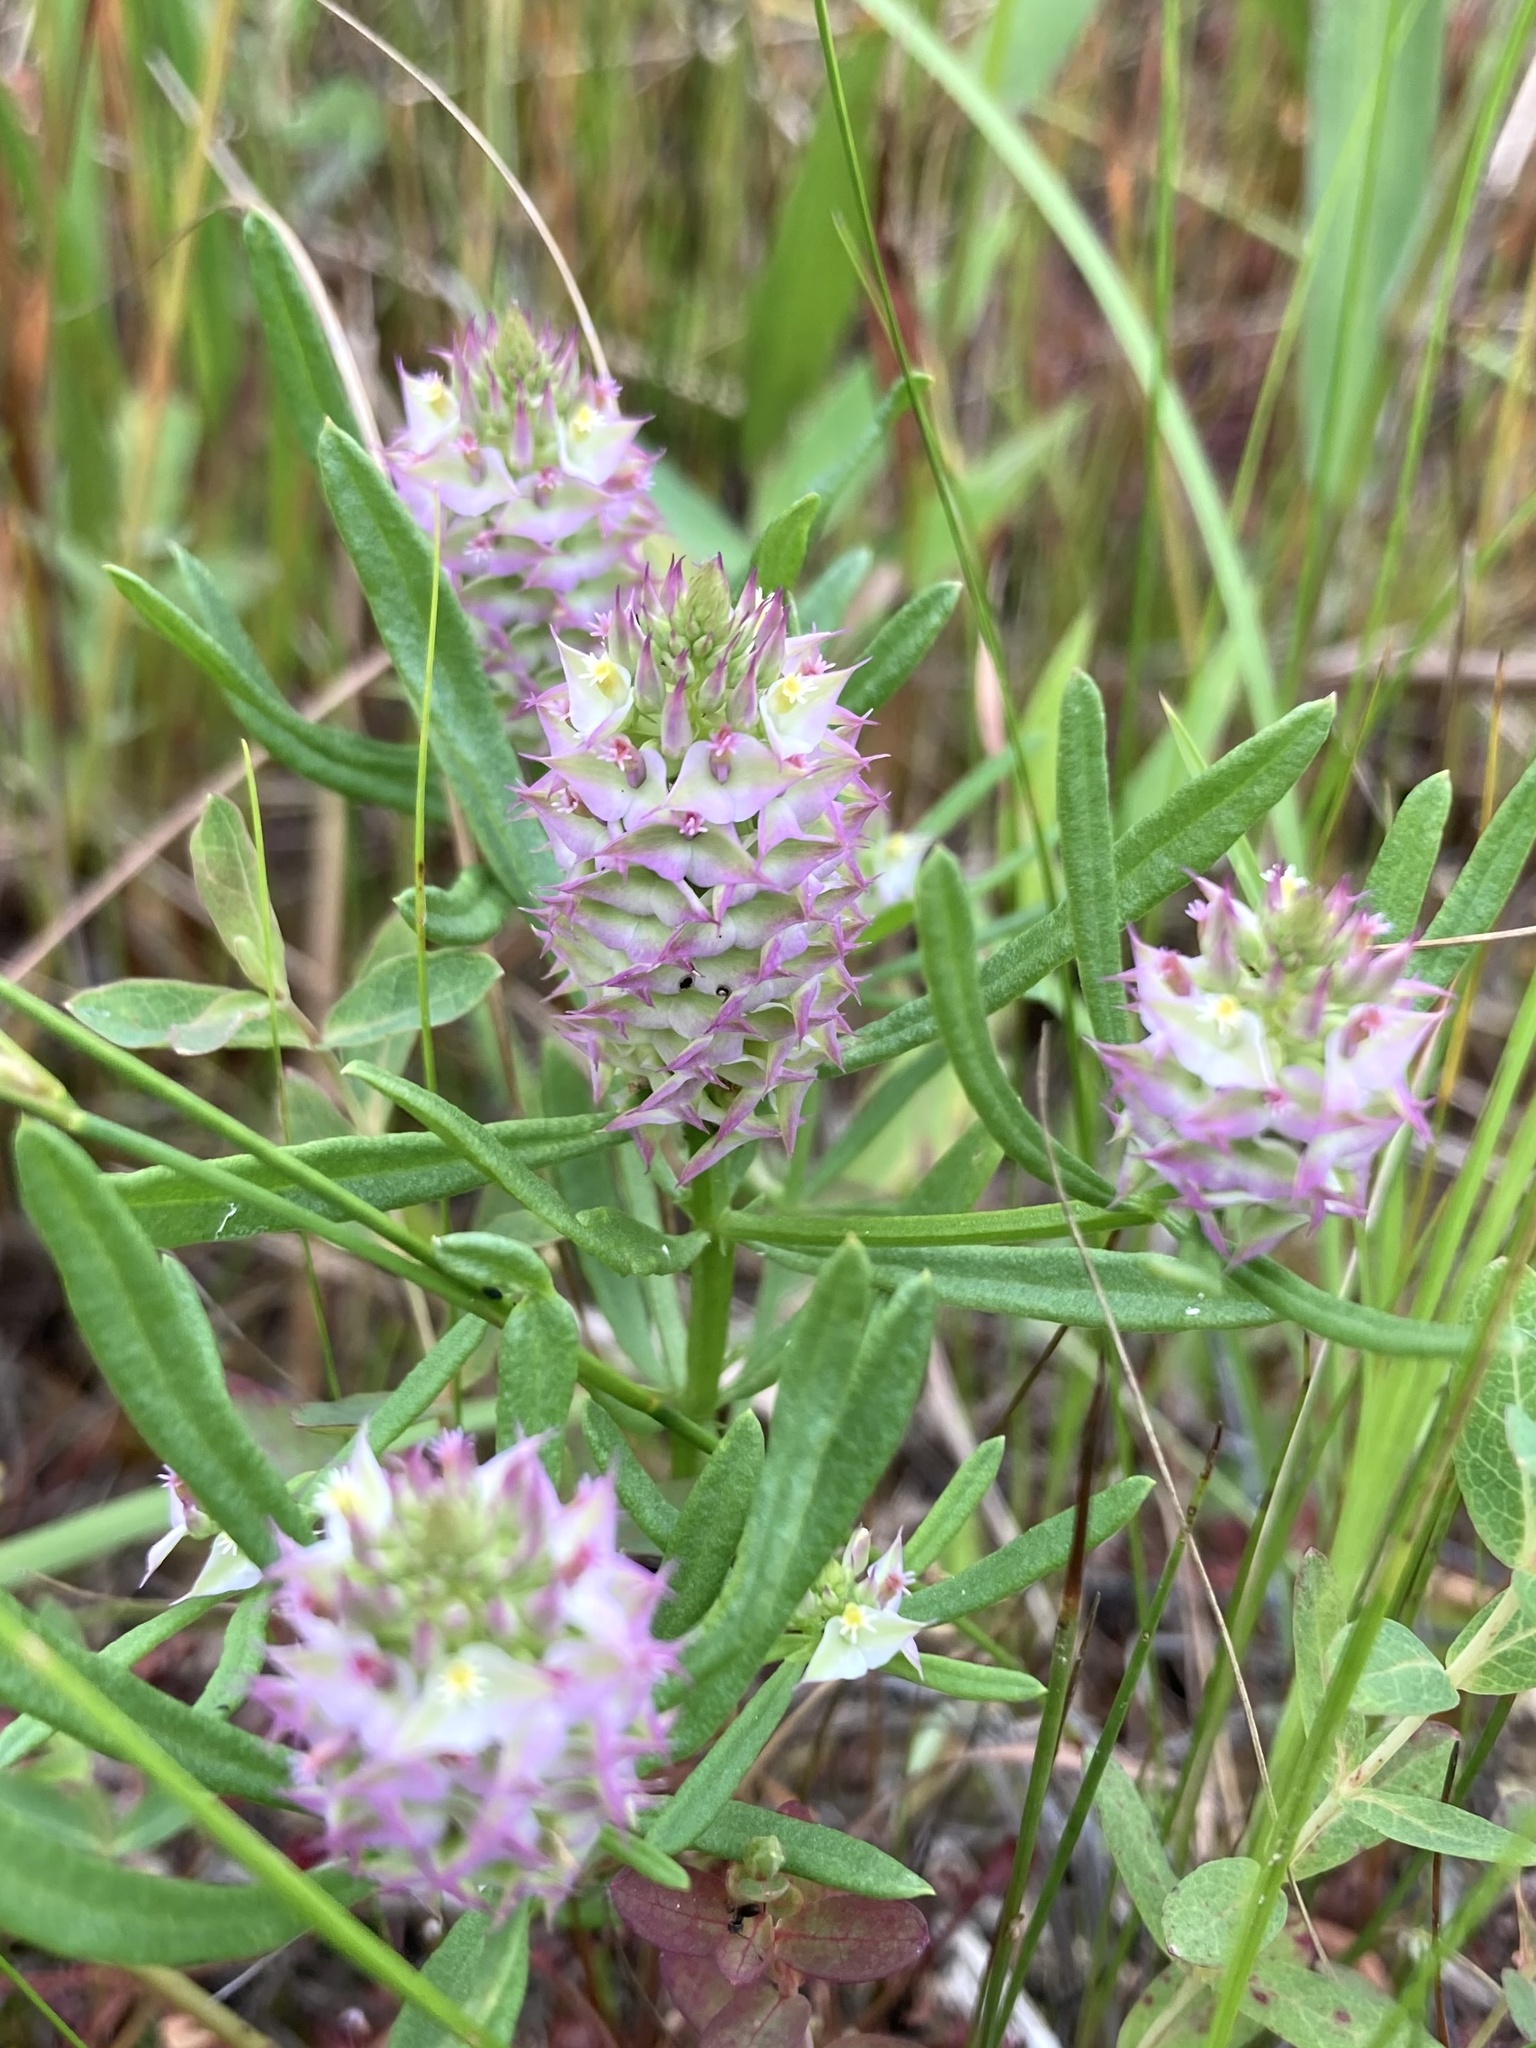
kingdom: Plantae
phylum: Tracheophyta
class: Magnoliopsida
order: Fabales
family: Polygalaceae
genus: Polygala
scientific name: Polygala cruciata
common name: Drumheads
